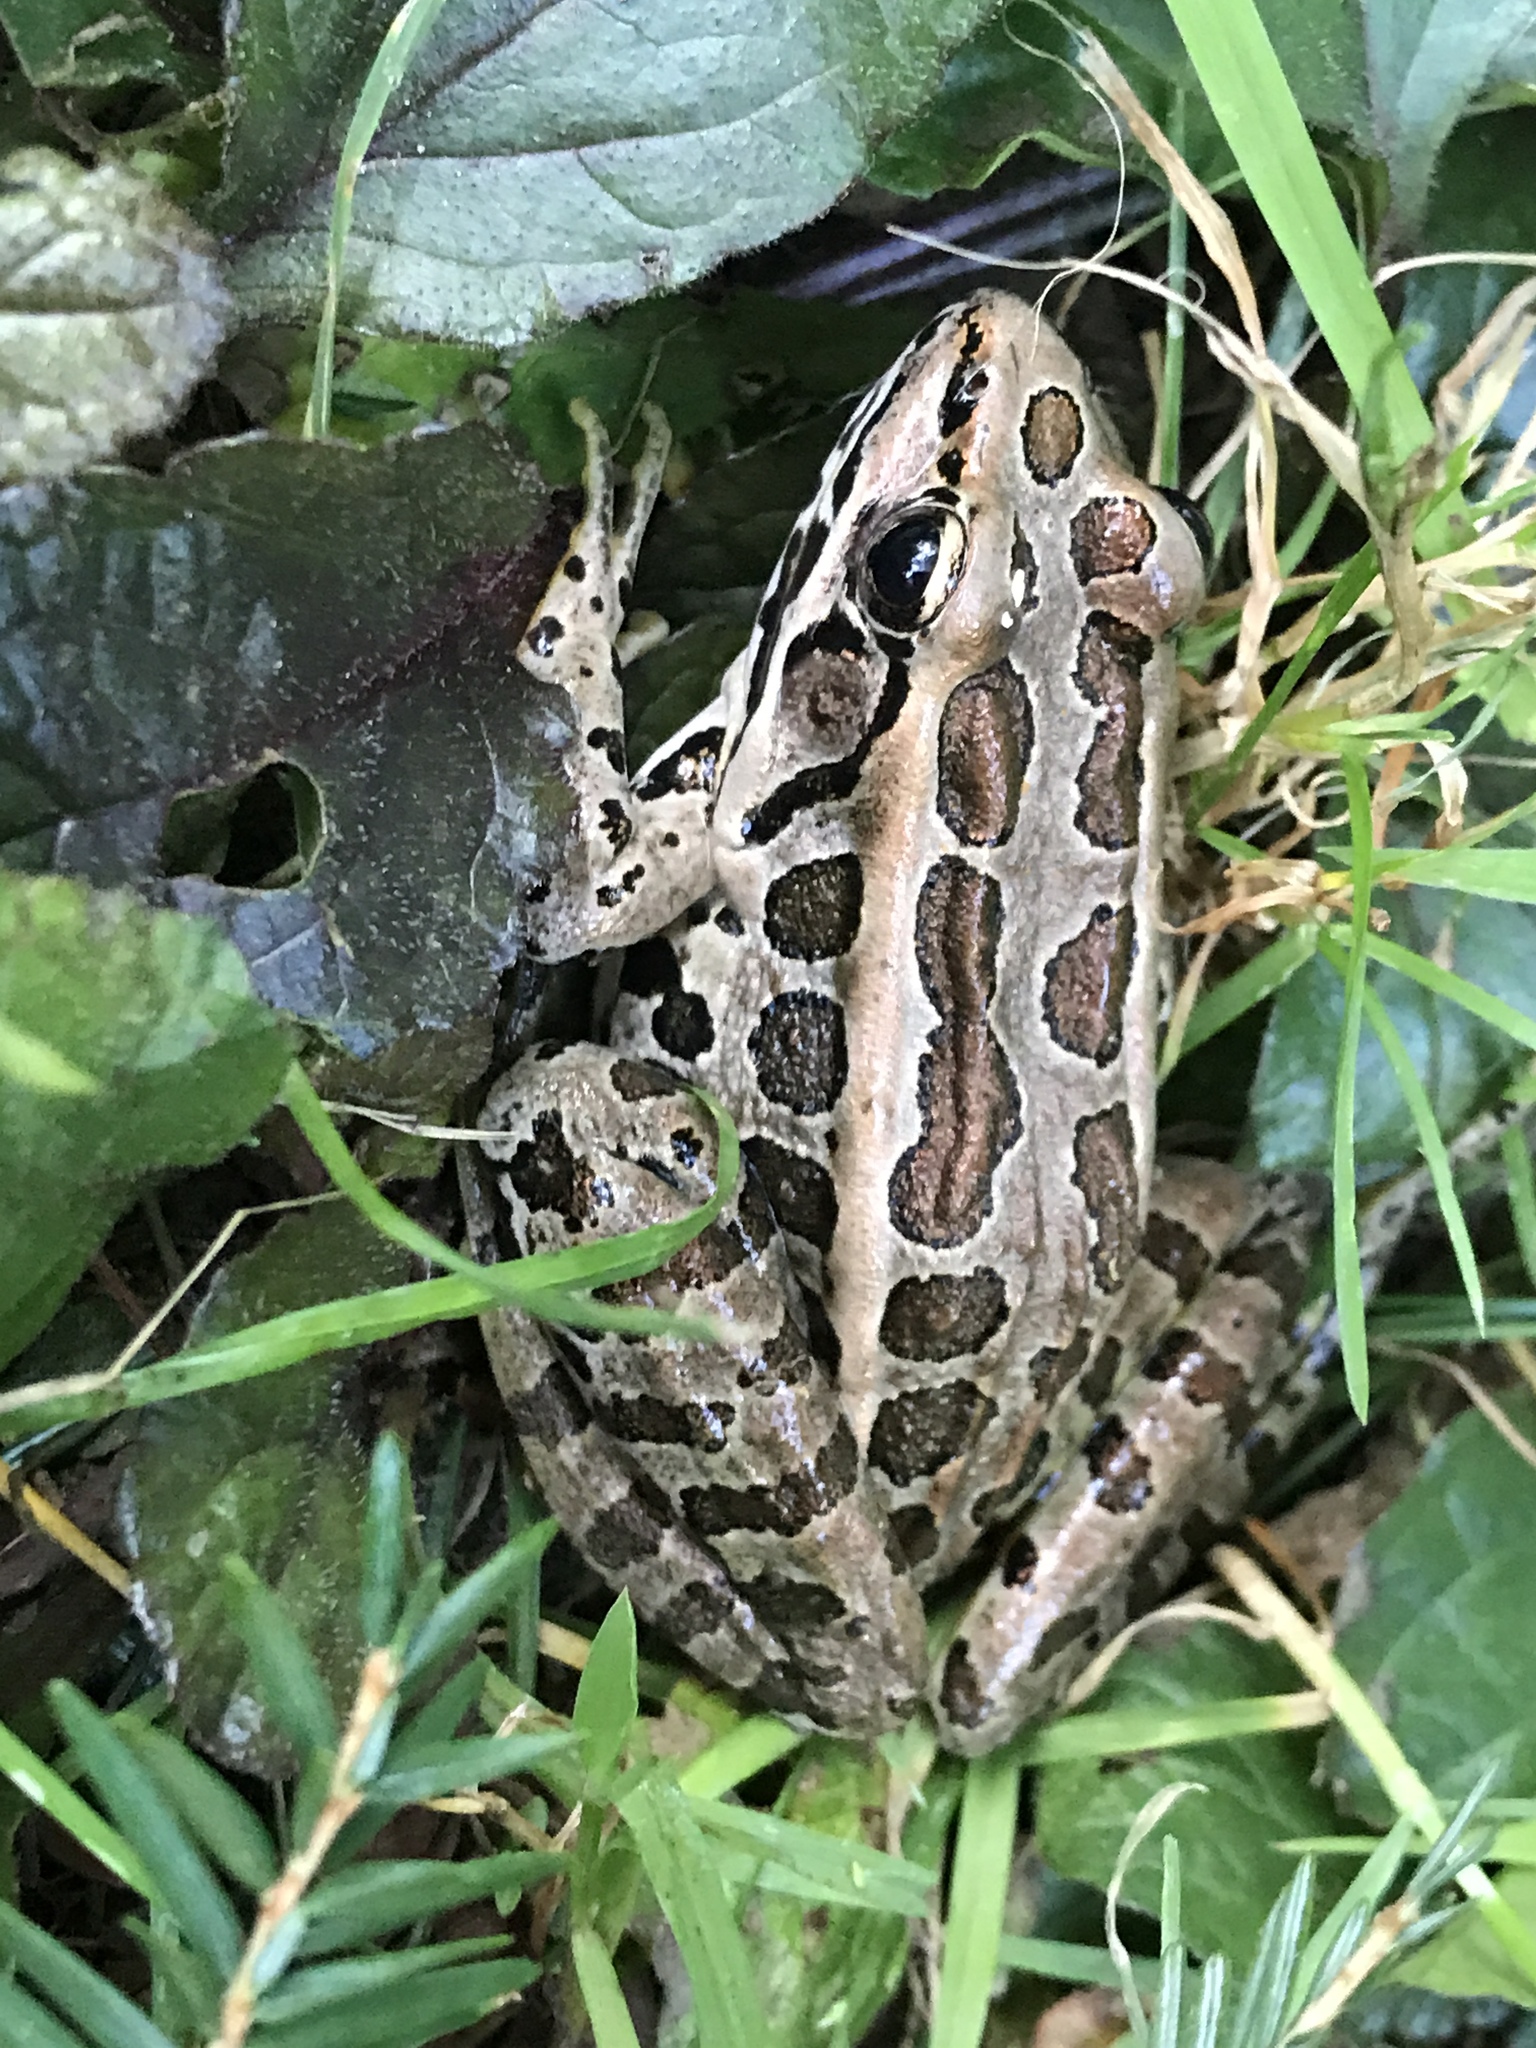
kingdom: Animalia
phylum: Chordata
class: Amphibia
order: Anura
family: Ranidae
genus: Lithobates
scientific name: Lithobates palustris
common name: Pickerel frog
